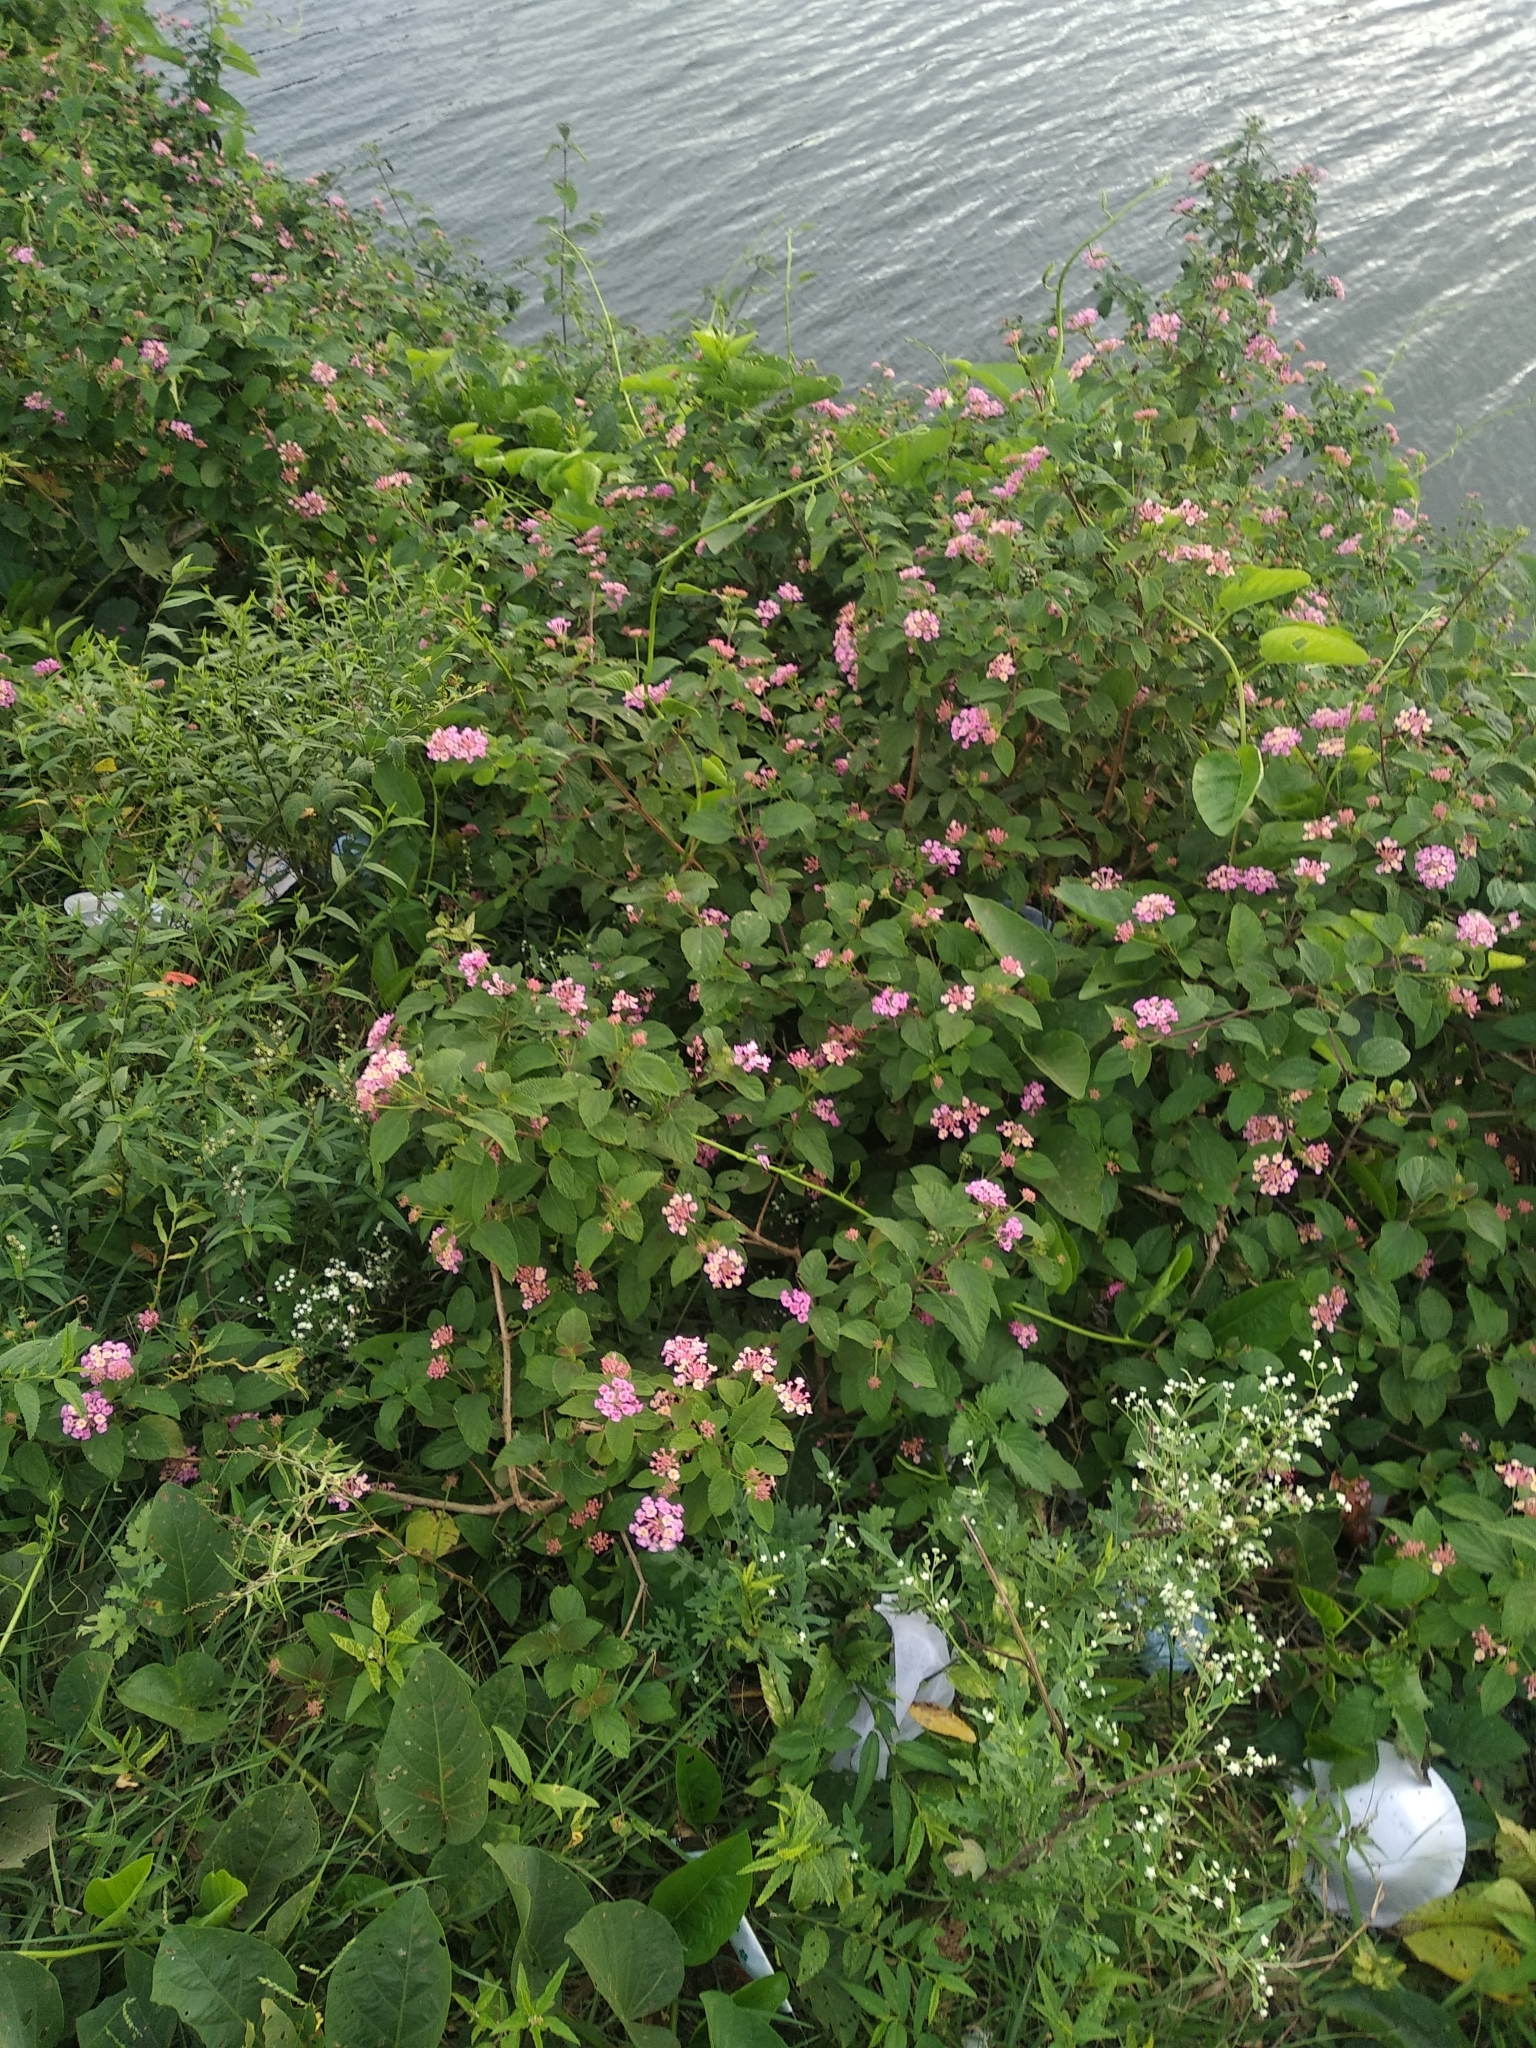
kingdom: Plantae
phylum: Tracheophyta
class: Magnoliopsida
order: Lamiales
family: Verbenaceae
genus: Lantana
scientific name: Lantana camara
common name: Lantana
